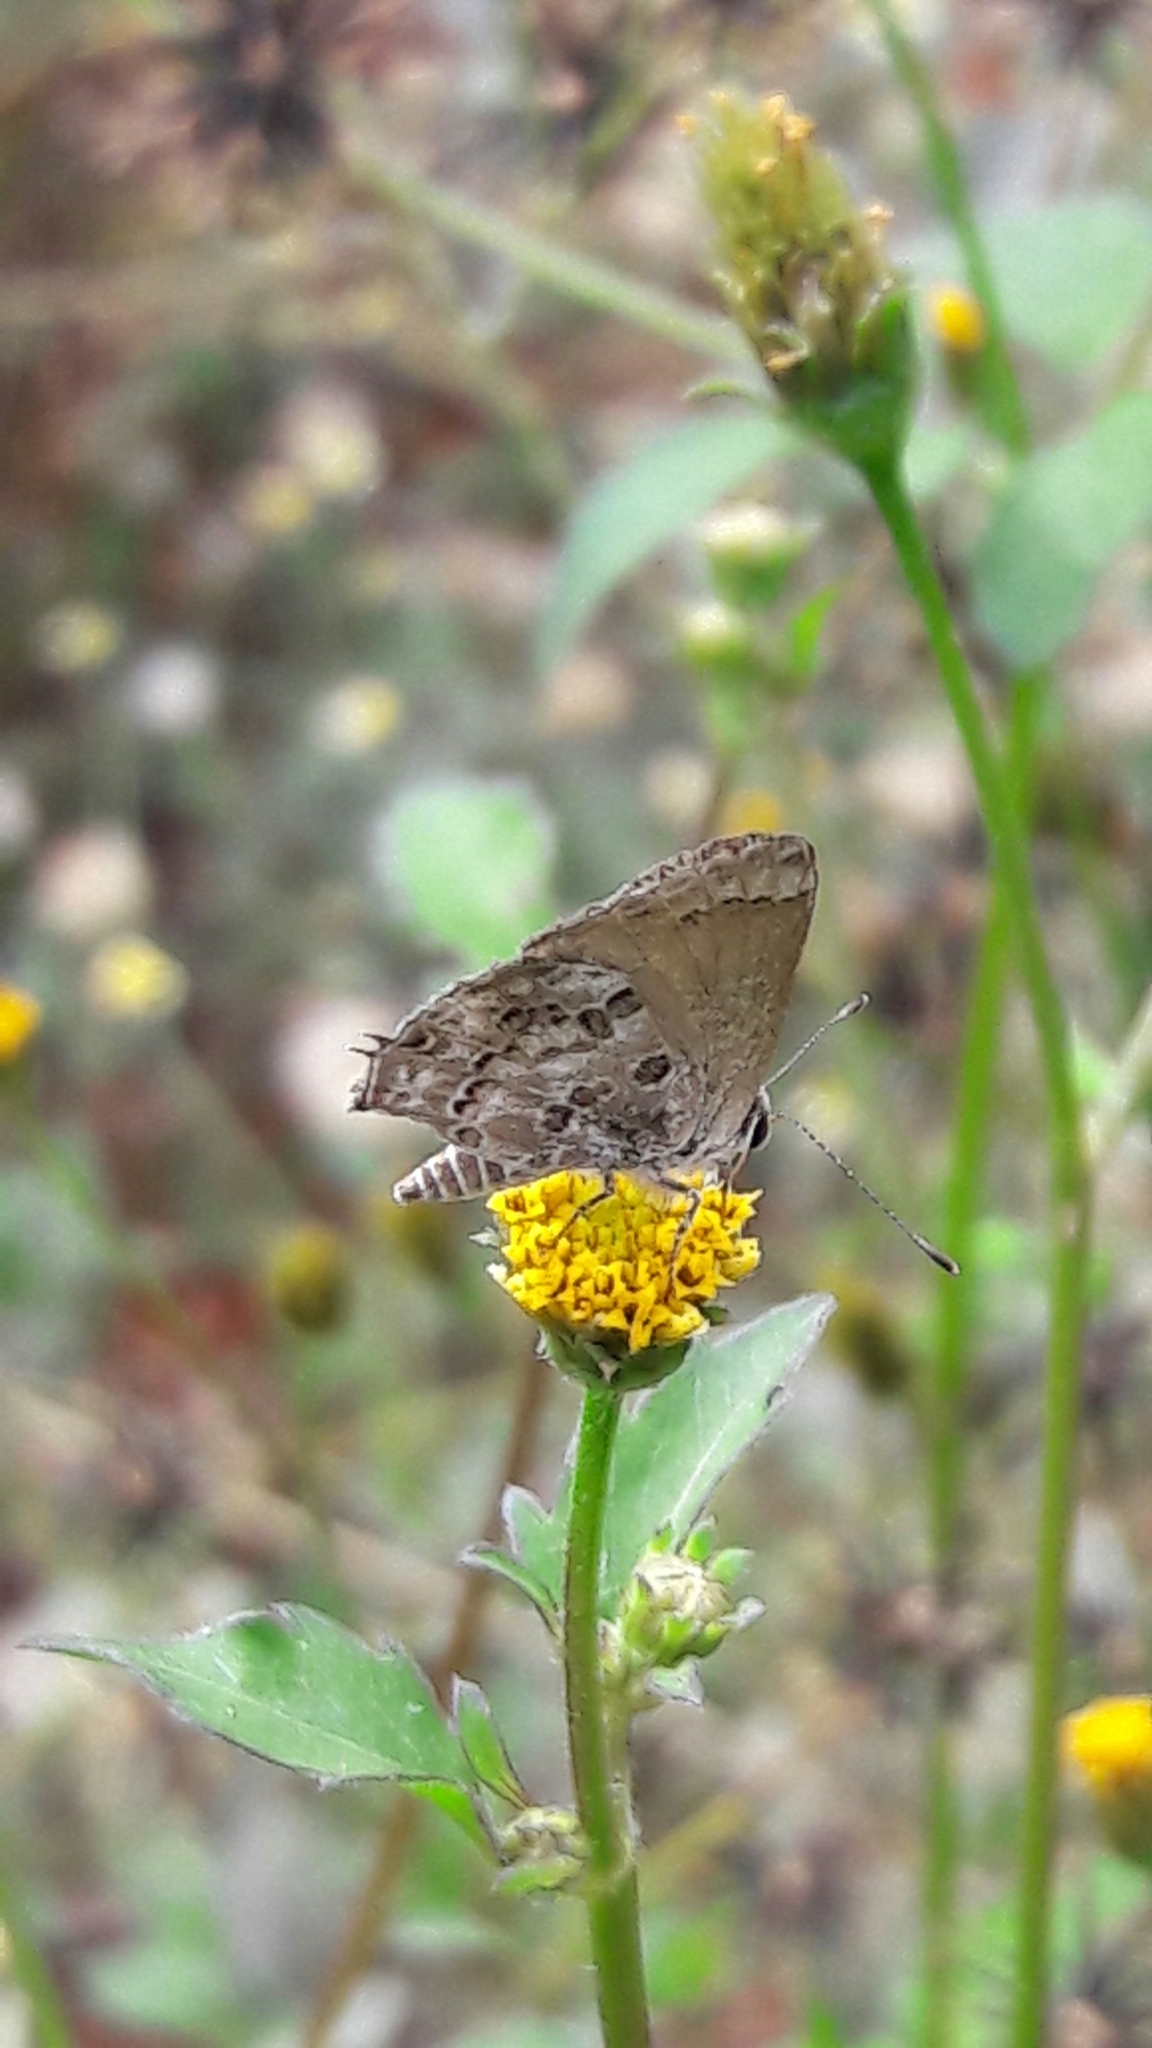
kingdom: Animalia
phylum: Arthropoda
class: Insecta
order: Lepidoptera
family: Lycaenidae
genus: Strymon
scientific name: Strymon astiocha
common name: Gray-spotted scrub-hairstreak
